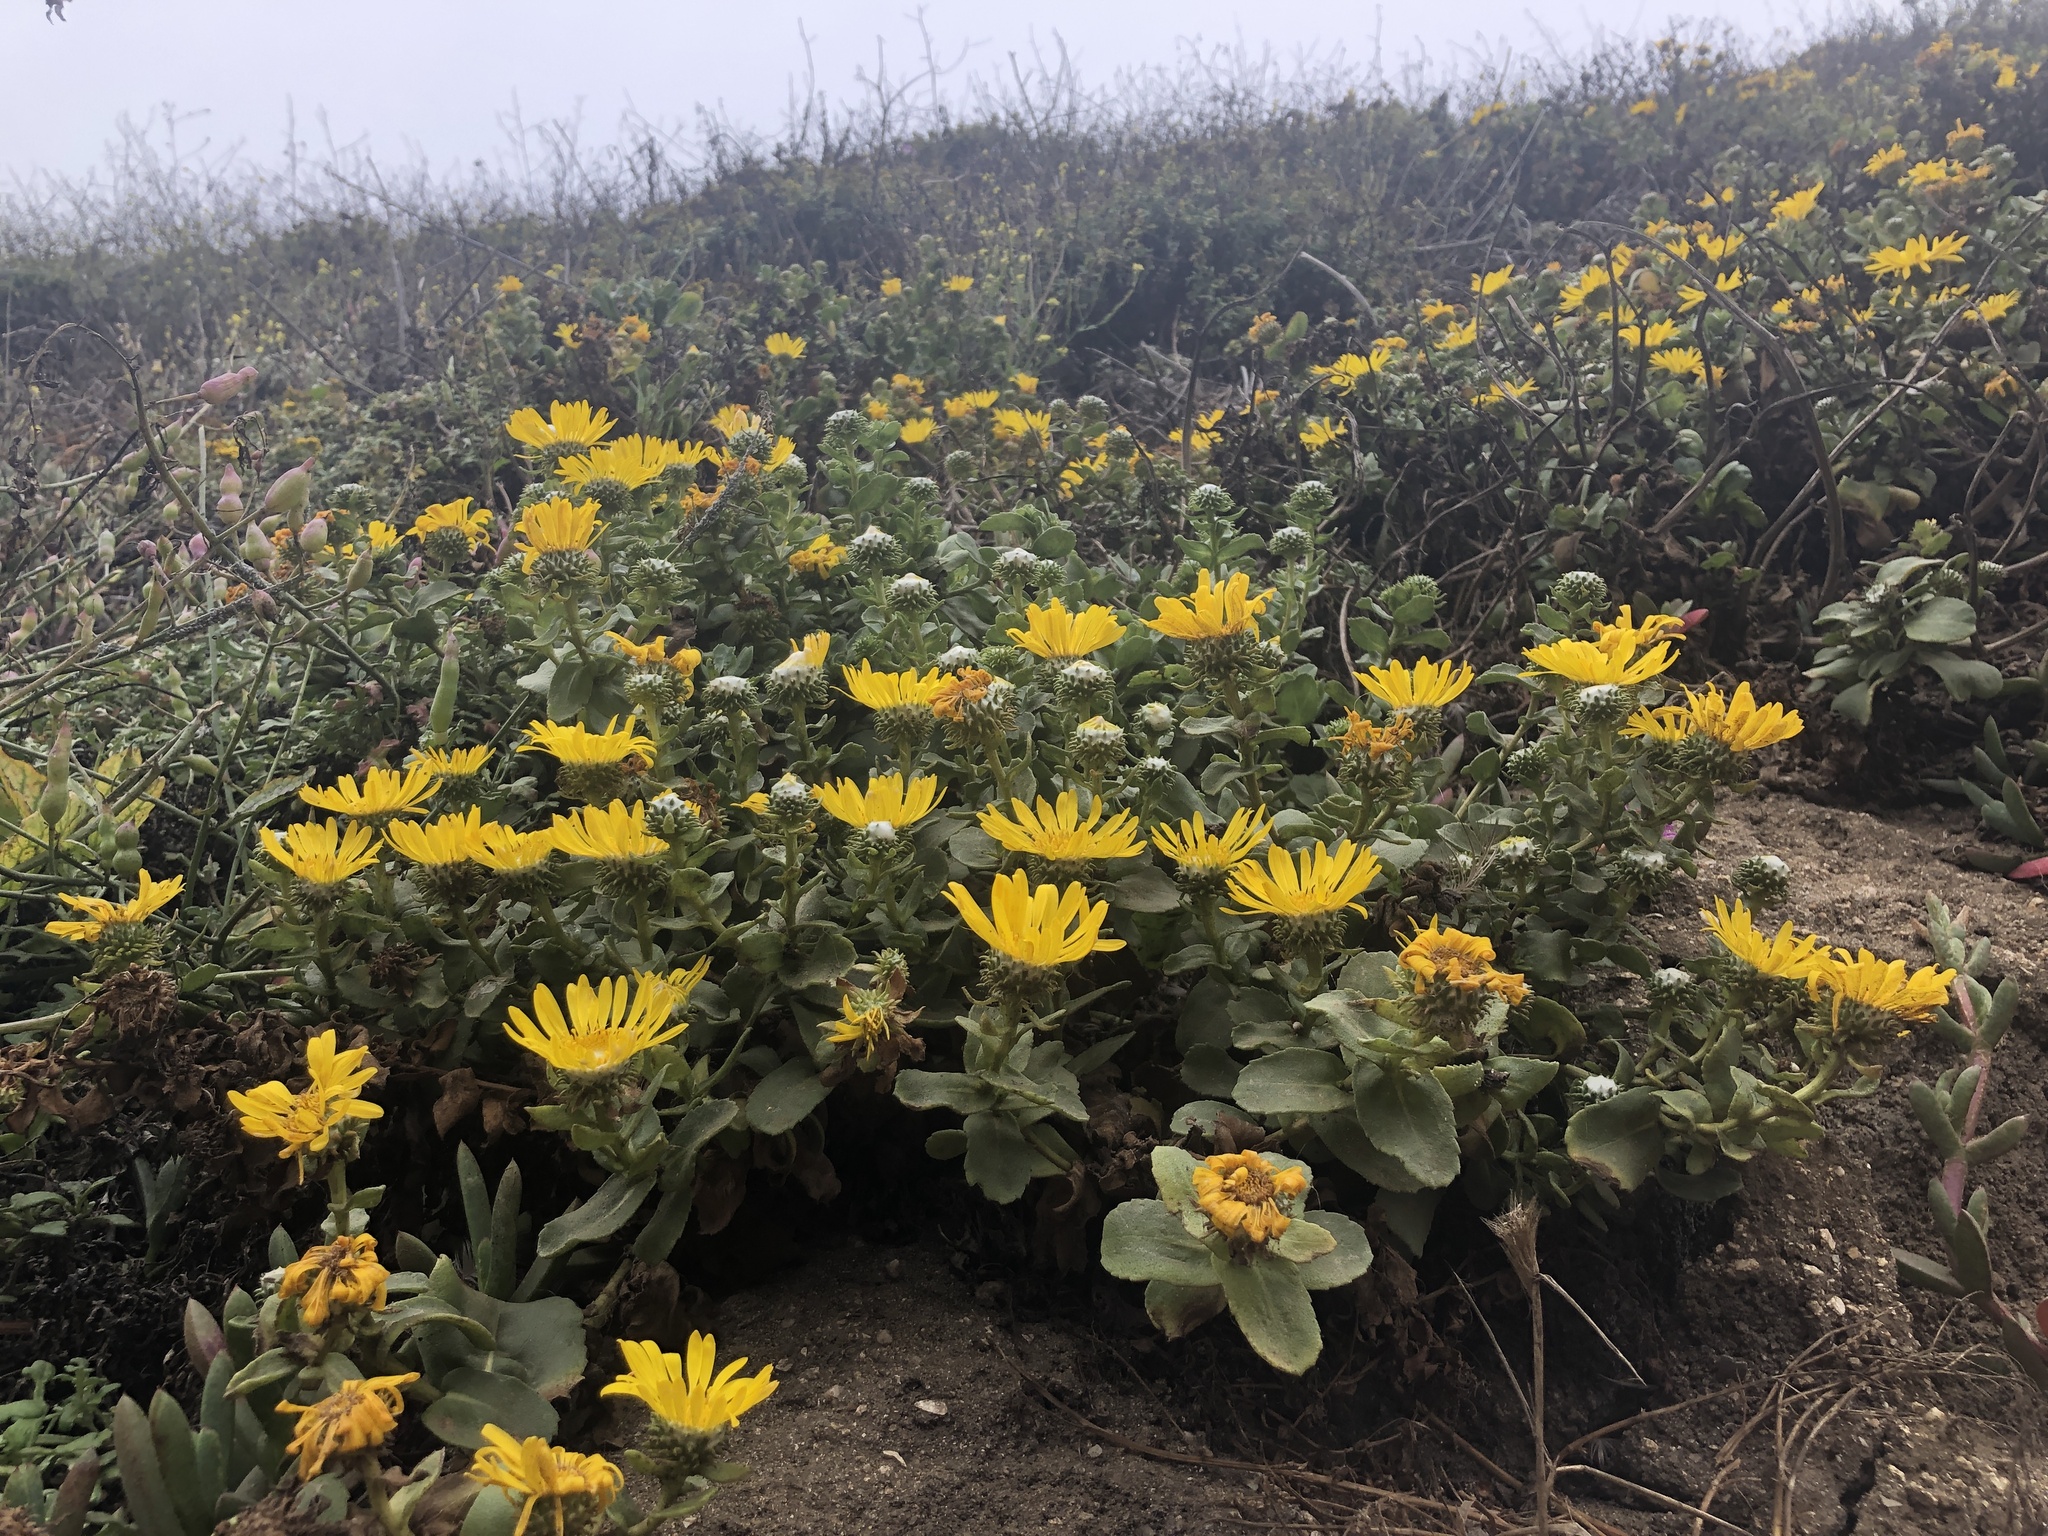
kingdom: Plantae
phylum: Tracheophyta
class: Magnoliopsida
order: Asterales
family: Asteraceae
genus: Grindelia
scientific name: Grindelia hirsutula
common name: Hairy gumweed
